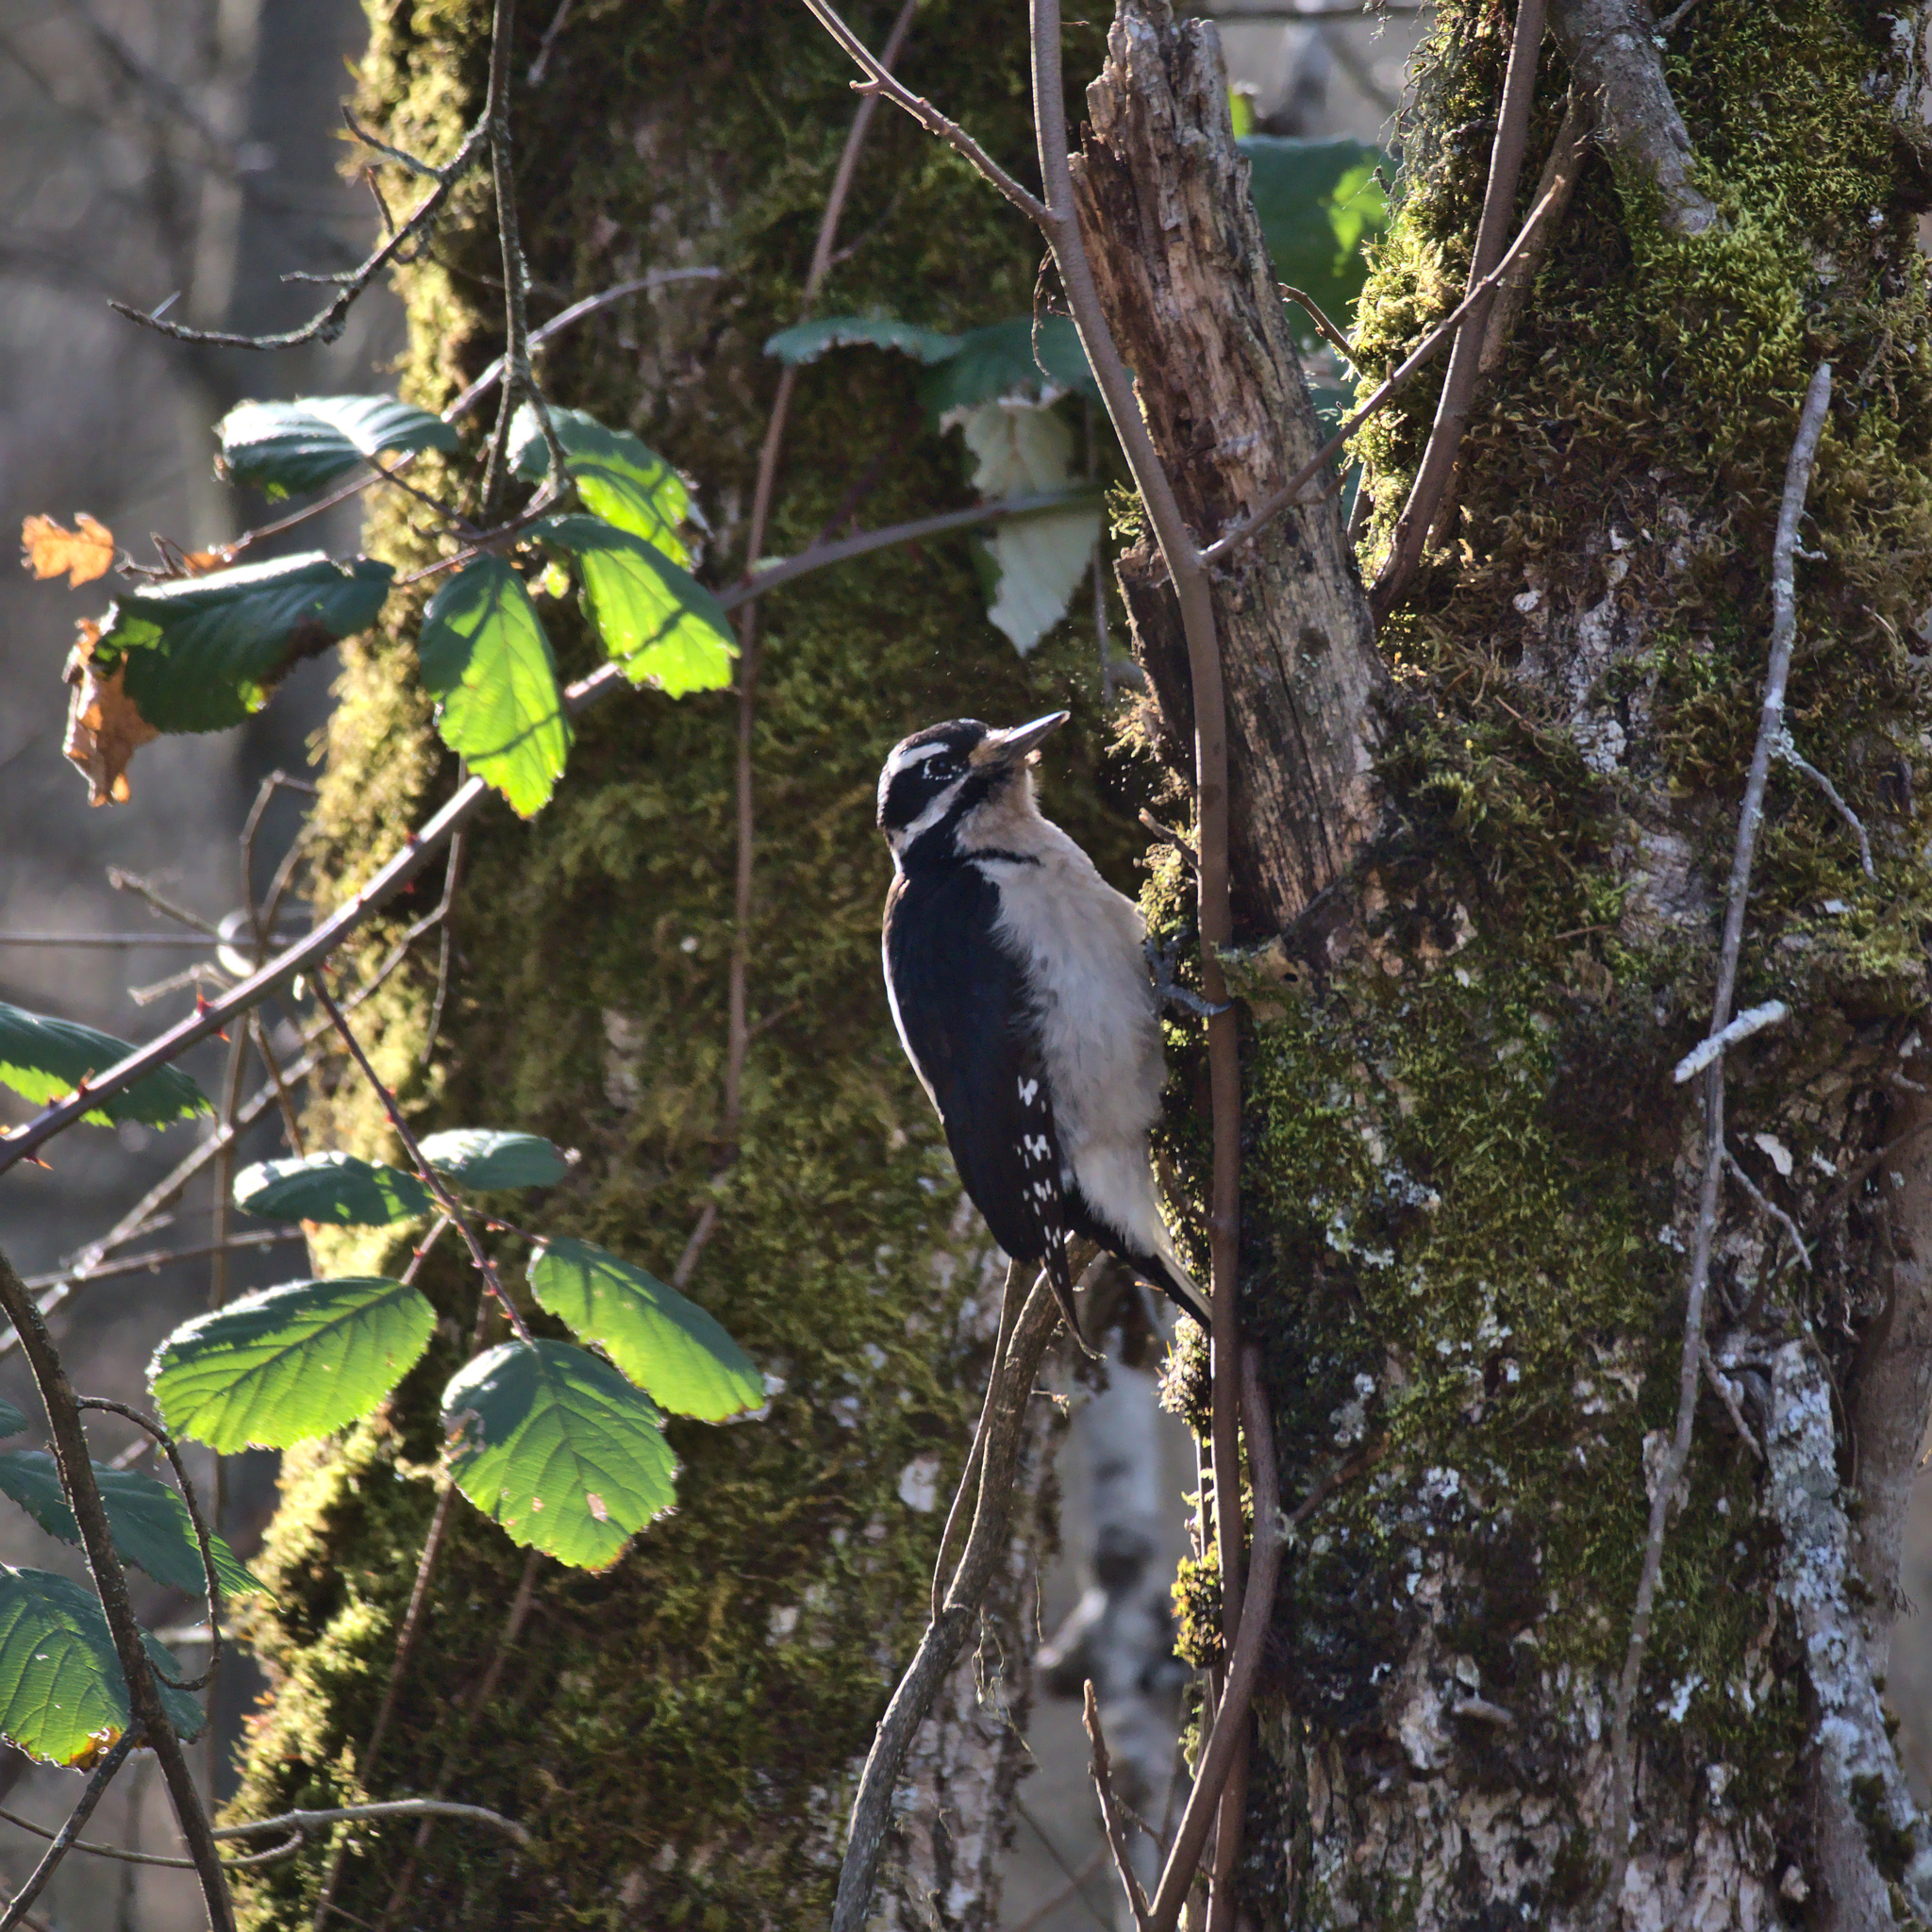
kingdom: Animalia
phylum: Chordata
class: Aves
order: Piciformes
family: Picidae
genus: Leuconotopicus
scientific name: Leuconotopicus villosus
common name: Hairy woodpecker
